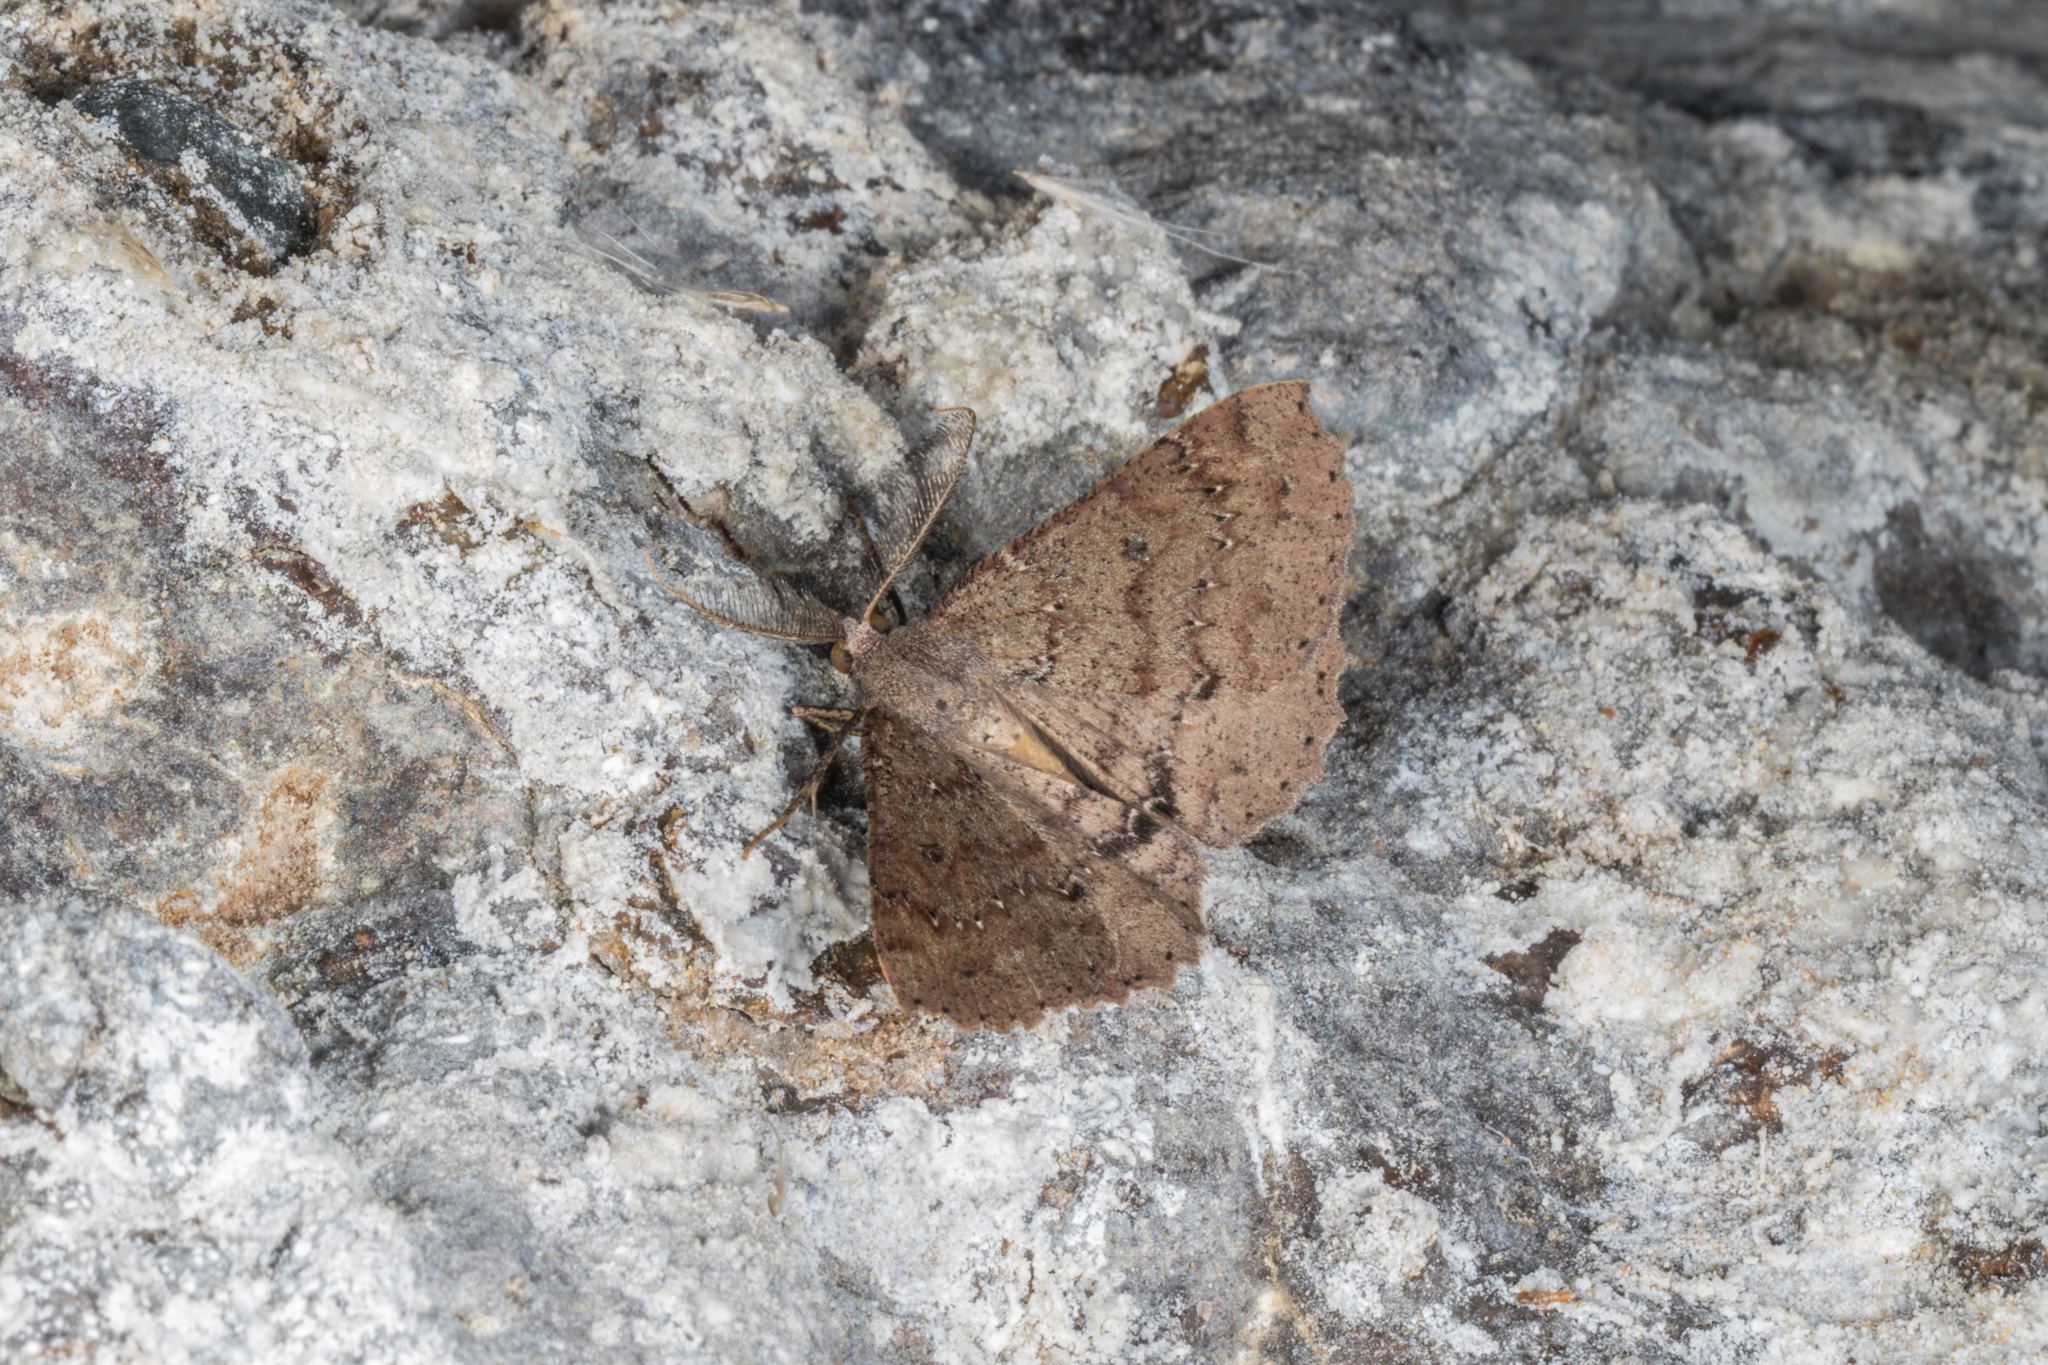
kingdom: Animalia
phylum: Arthropoda
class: Insecta
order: Lepidoptera
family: Geometridae
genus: Cleora
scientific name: Cleora scriptaria
